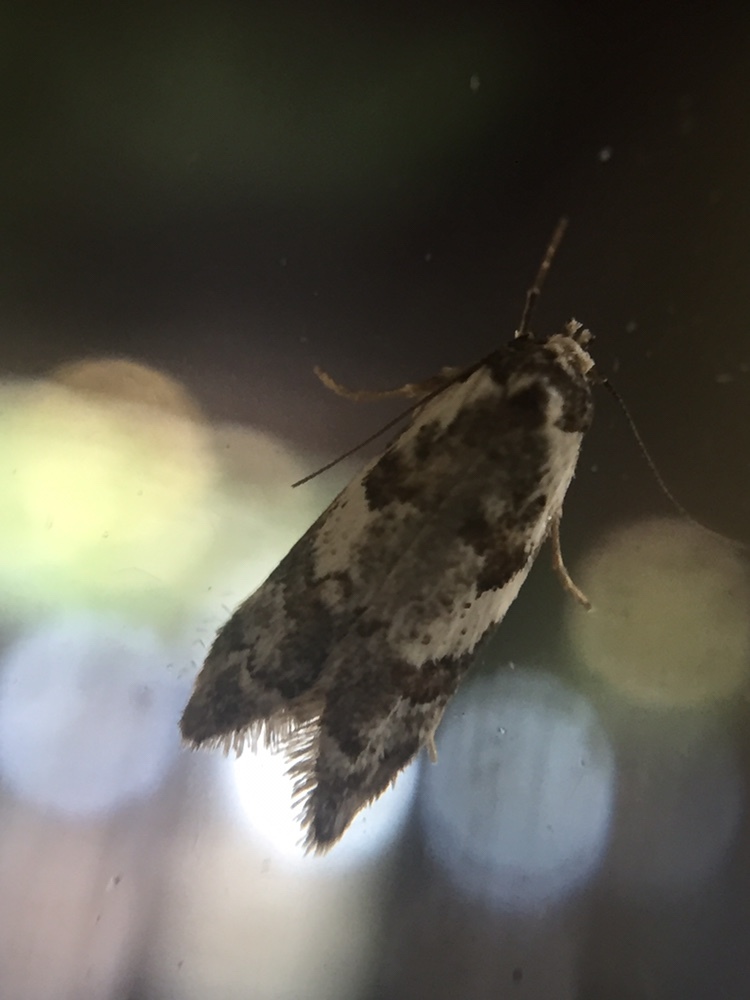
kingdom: Animalia
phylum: Arthropoda
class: Insecta
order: Lepidoptera
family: Oecophoridae
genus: Trachypepla
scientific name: Trachypepla galaxias
